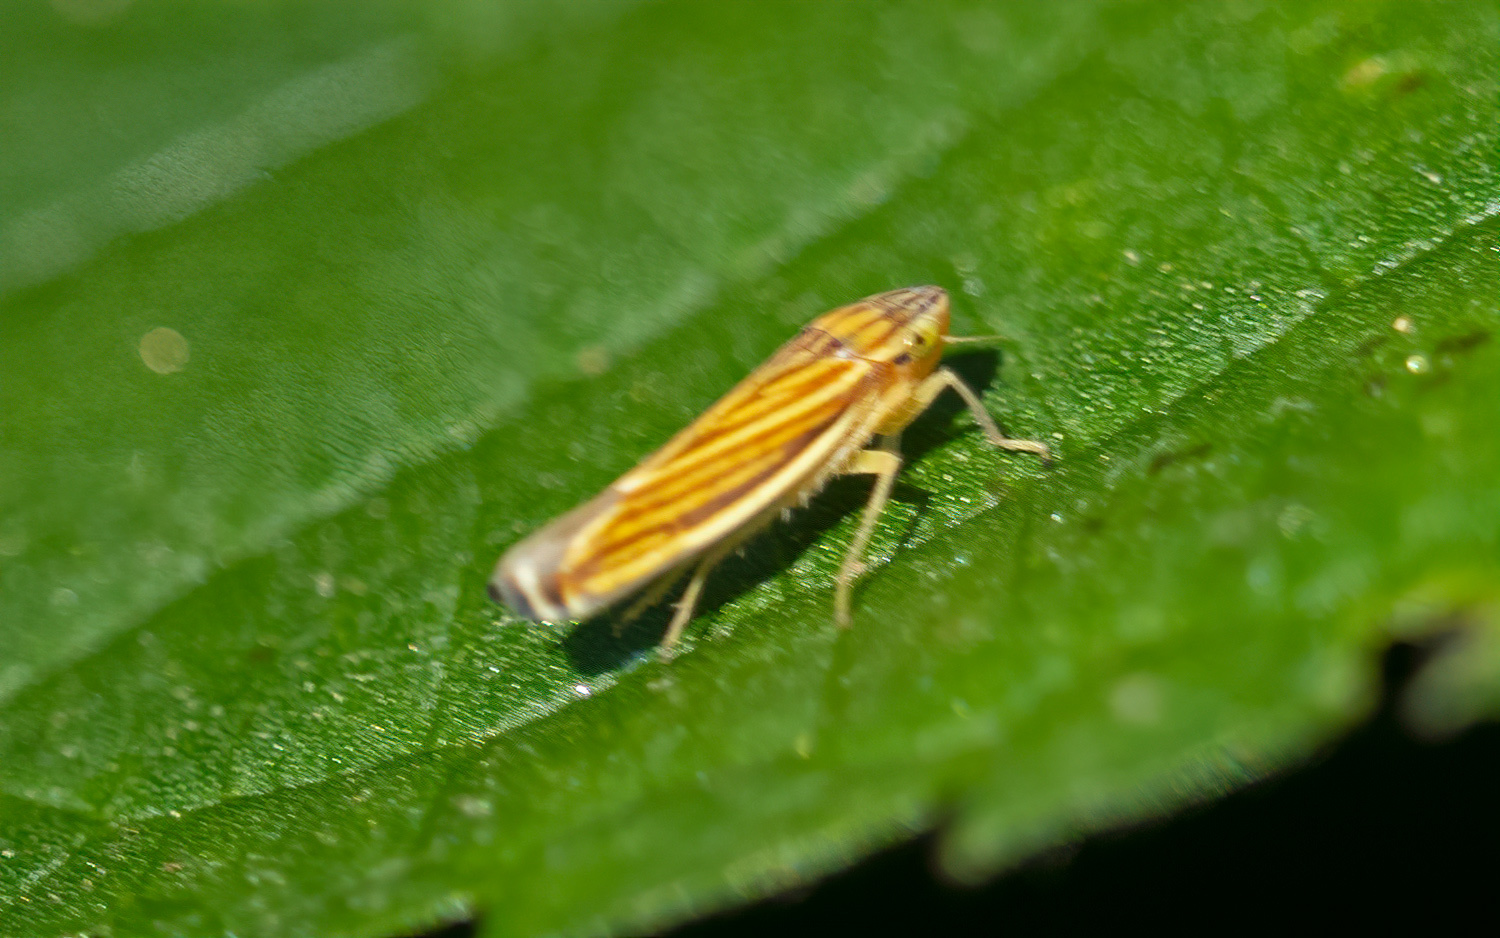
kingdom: Animalia
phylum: Arthropoda
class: Insecta
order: Hemiptera
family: Cicadellidae
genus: Sibovia
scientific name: Sibovia occatoria
